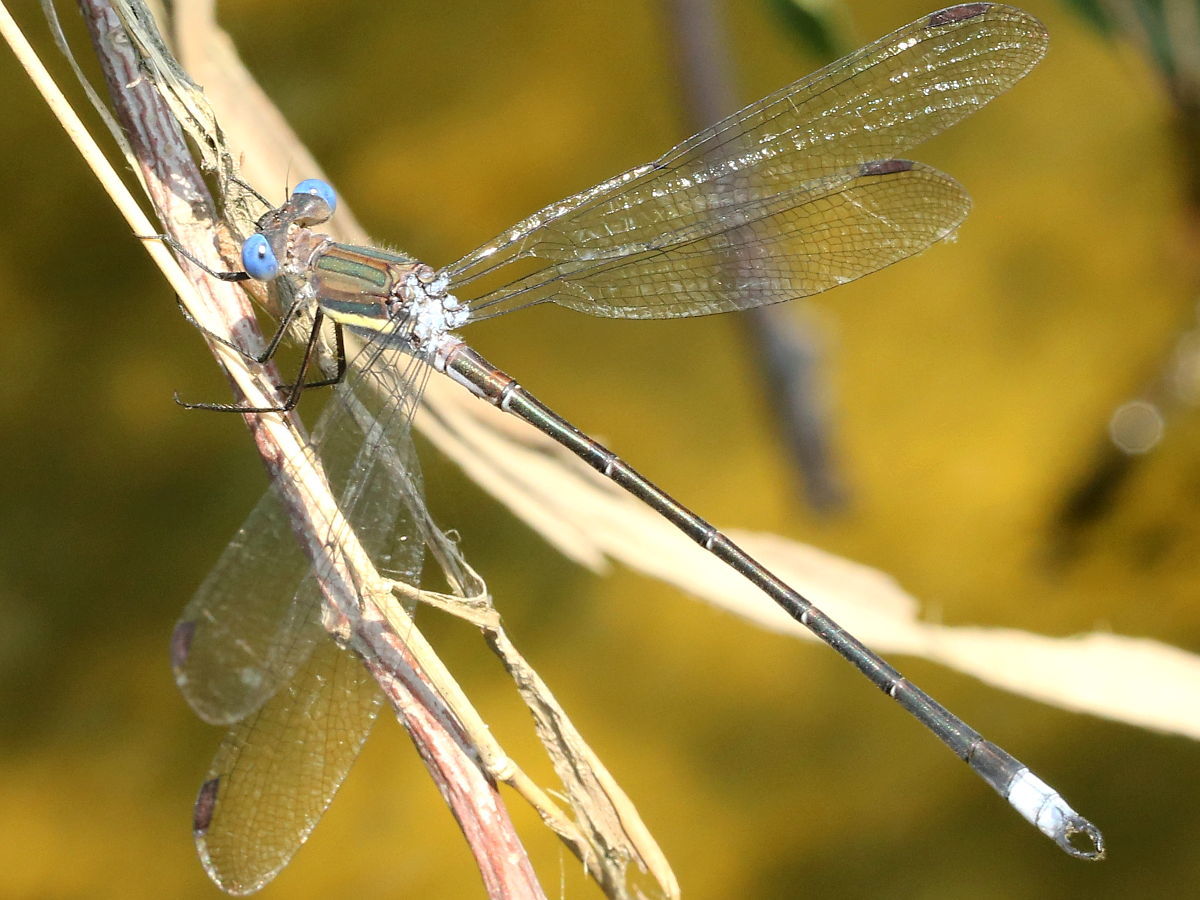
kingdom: Animalia
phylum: Arthropoda
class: Insecta
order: Odonata
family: Lestidae
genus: Archilestes
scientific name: Archilestes grandis
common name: Great spreadwing
